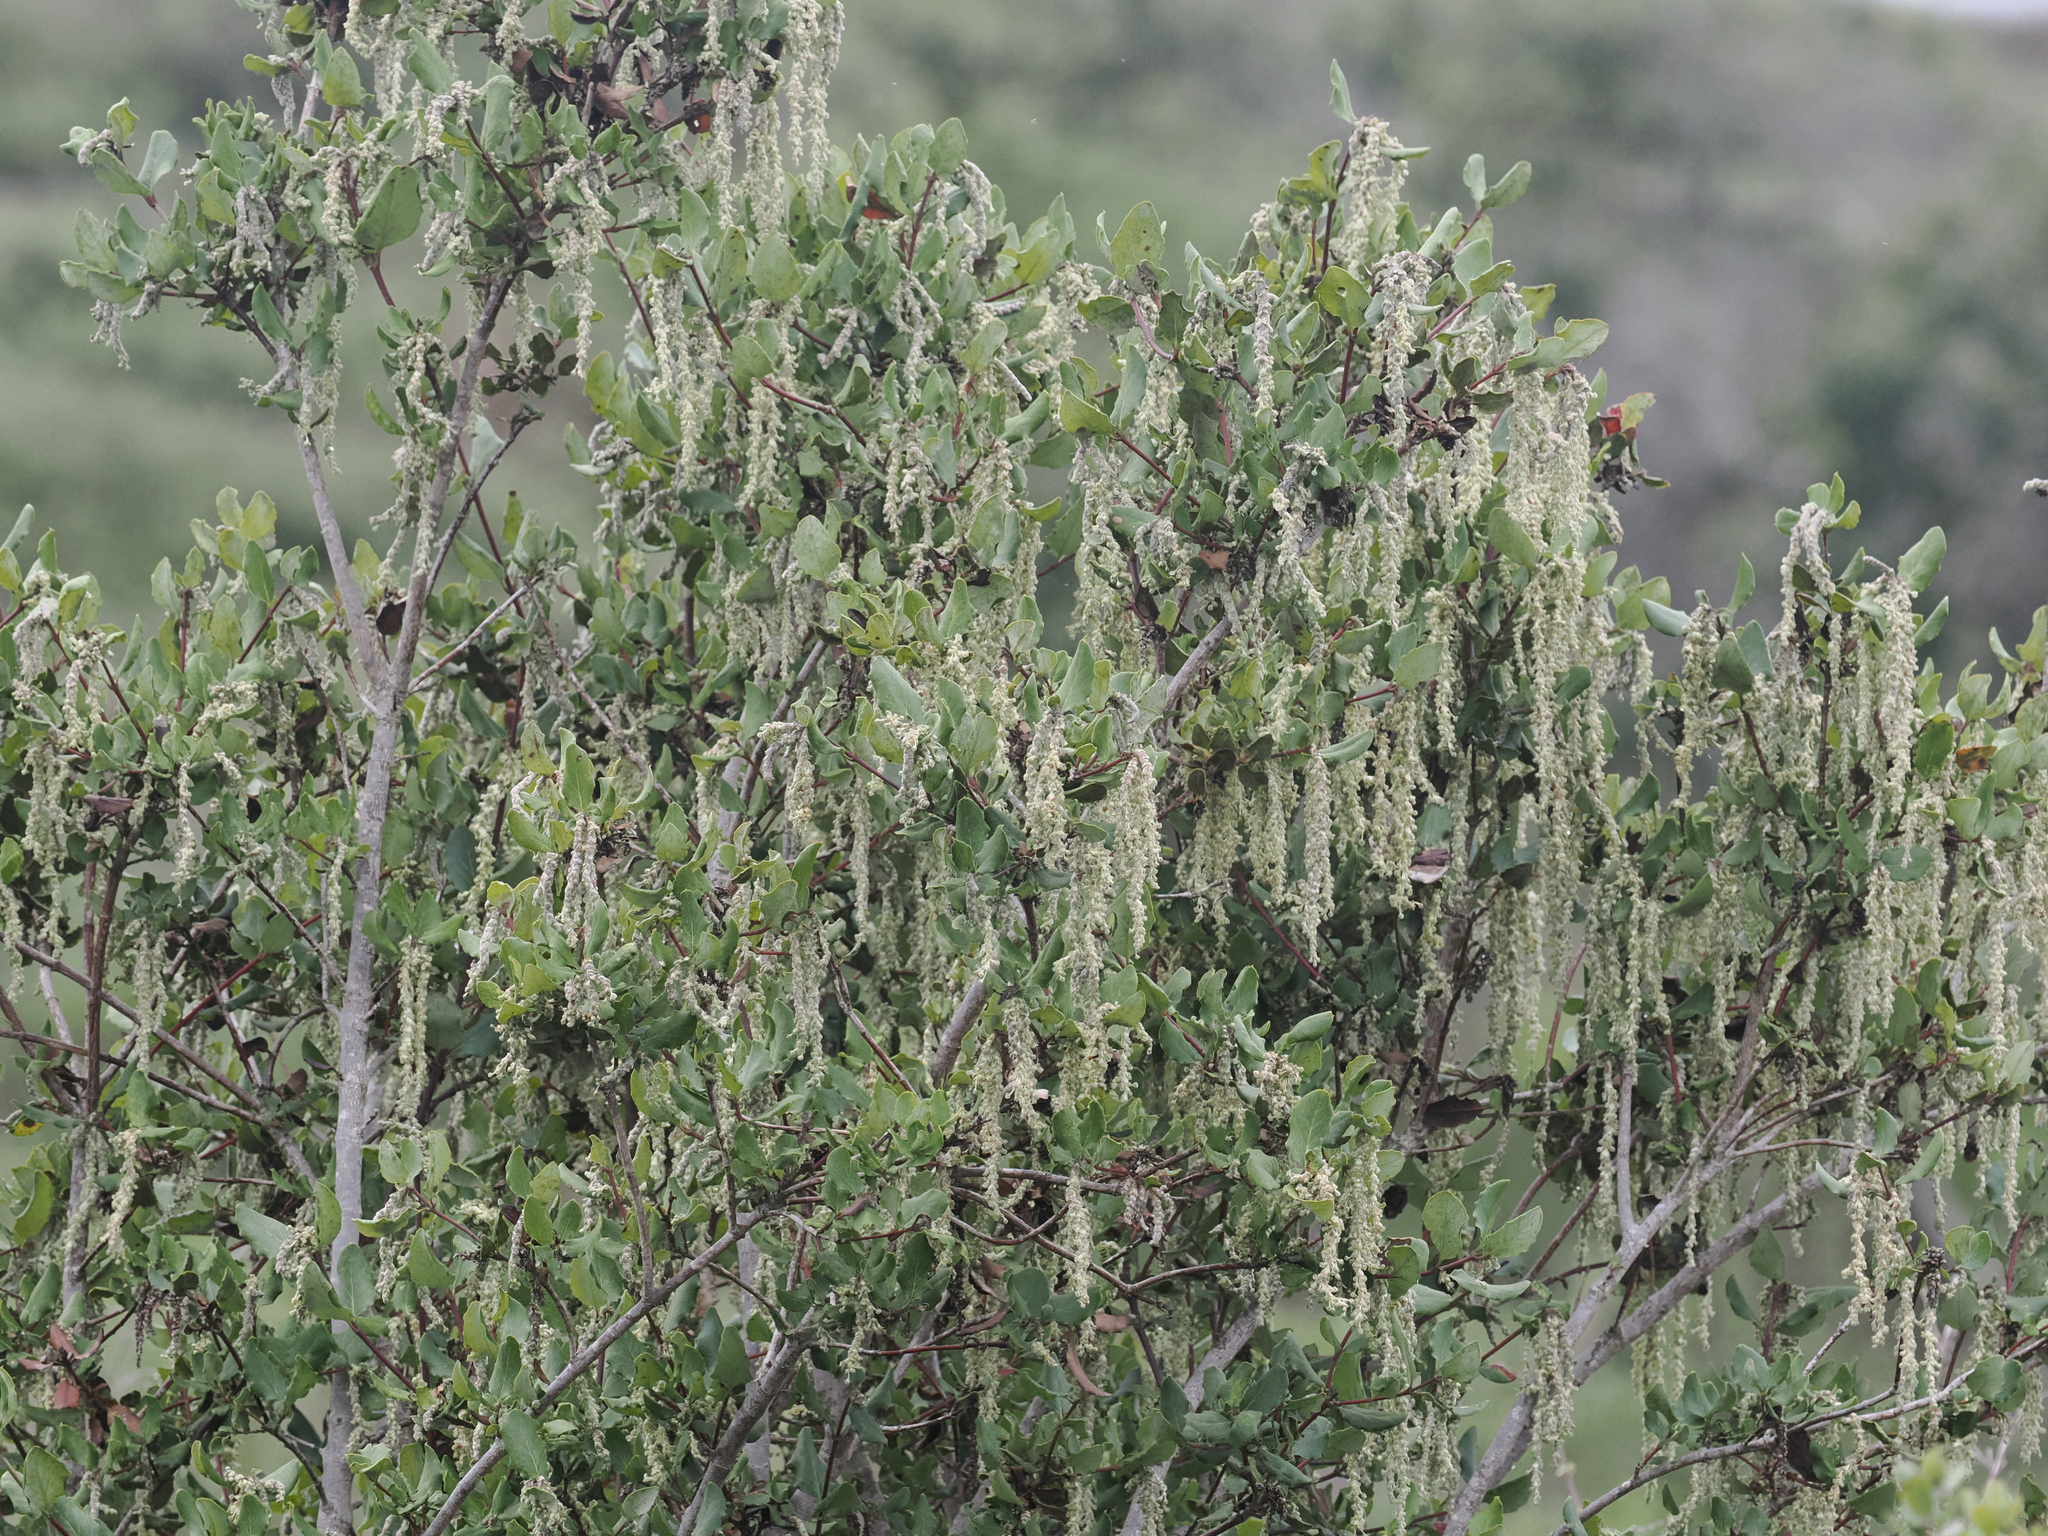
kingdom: Plantae
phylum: Tracheophyta
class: Magnoliopsida
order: Garryales
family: Garryaceae
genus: Garrya
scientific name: Garrya elliptica
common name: Silk-tassel
